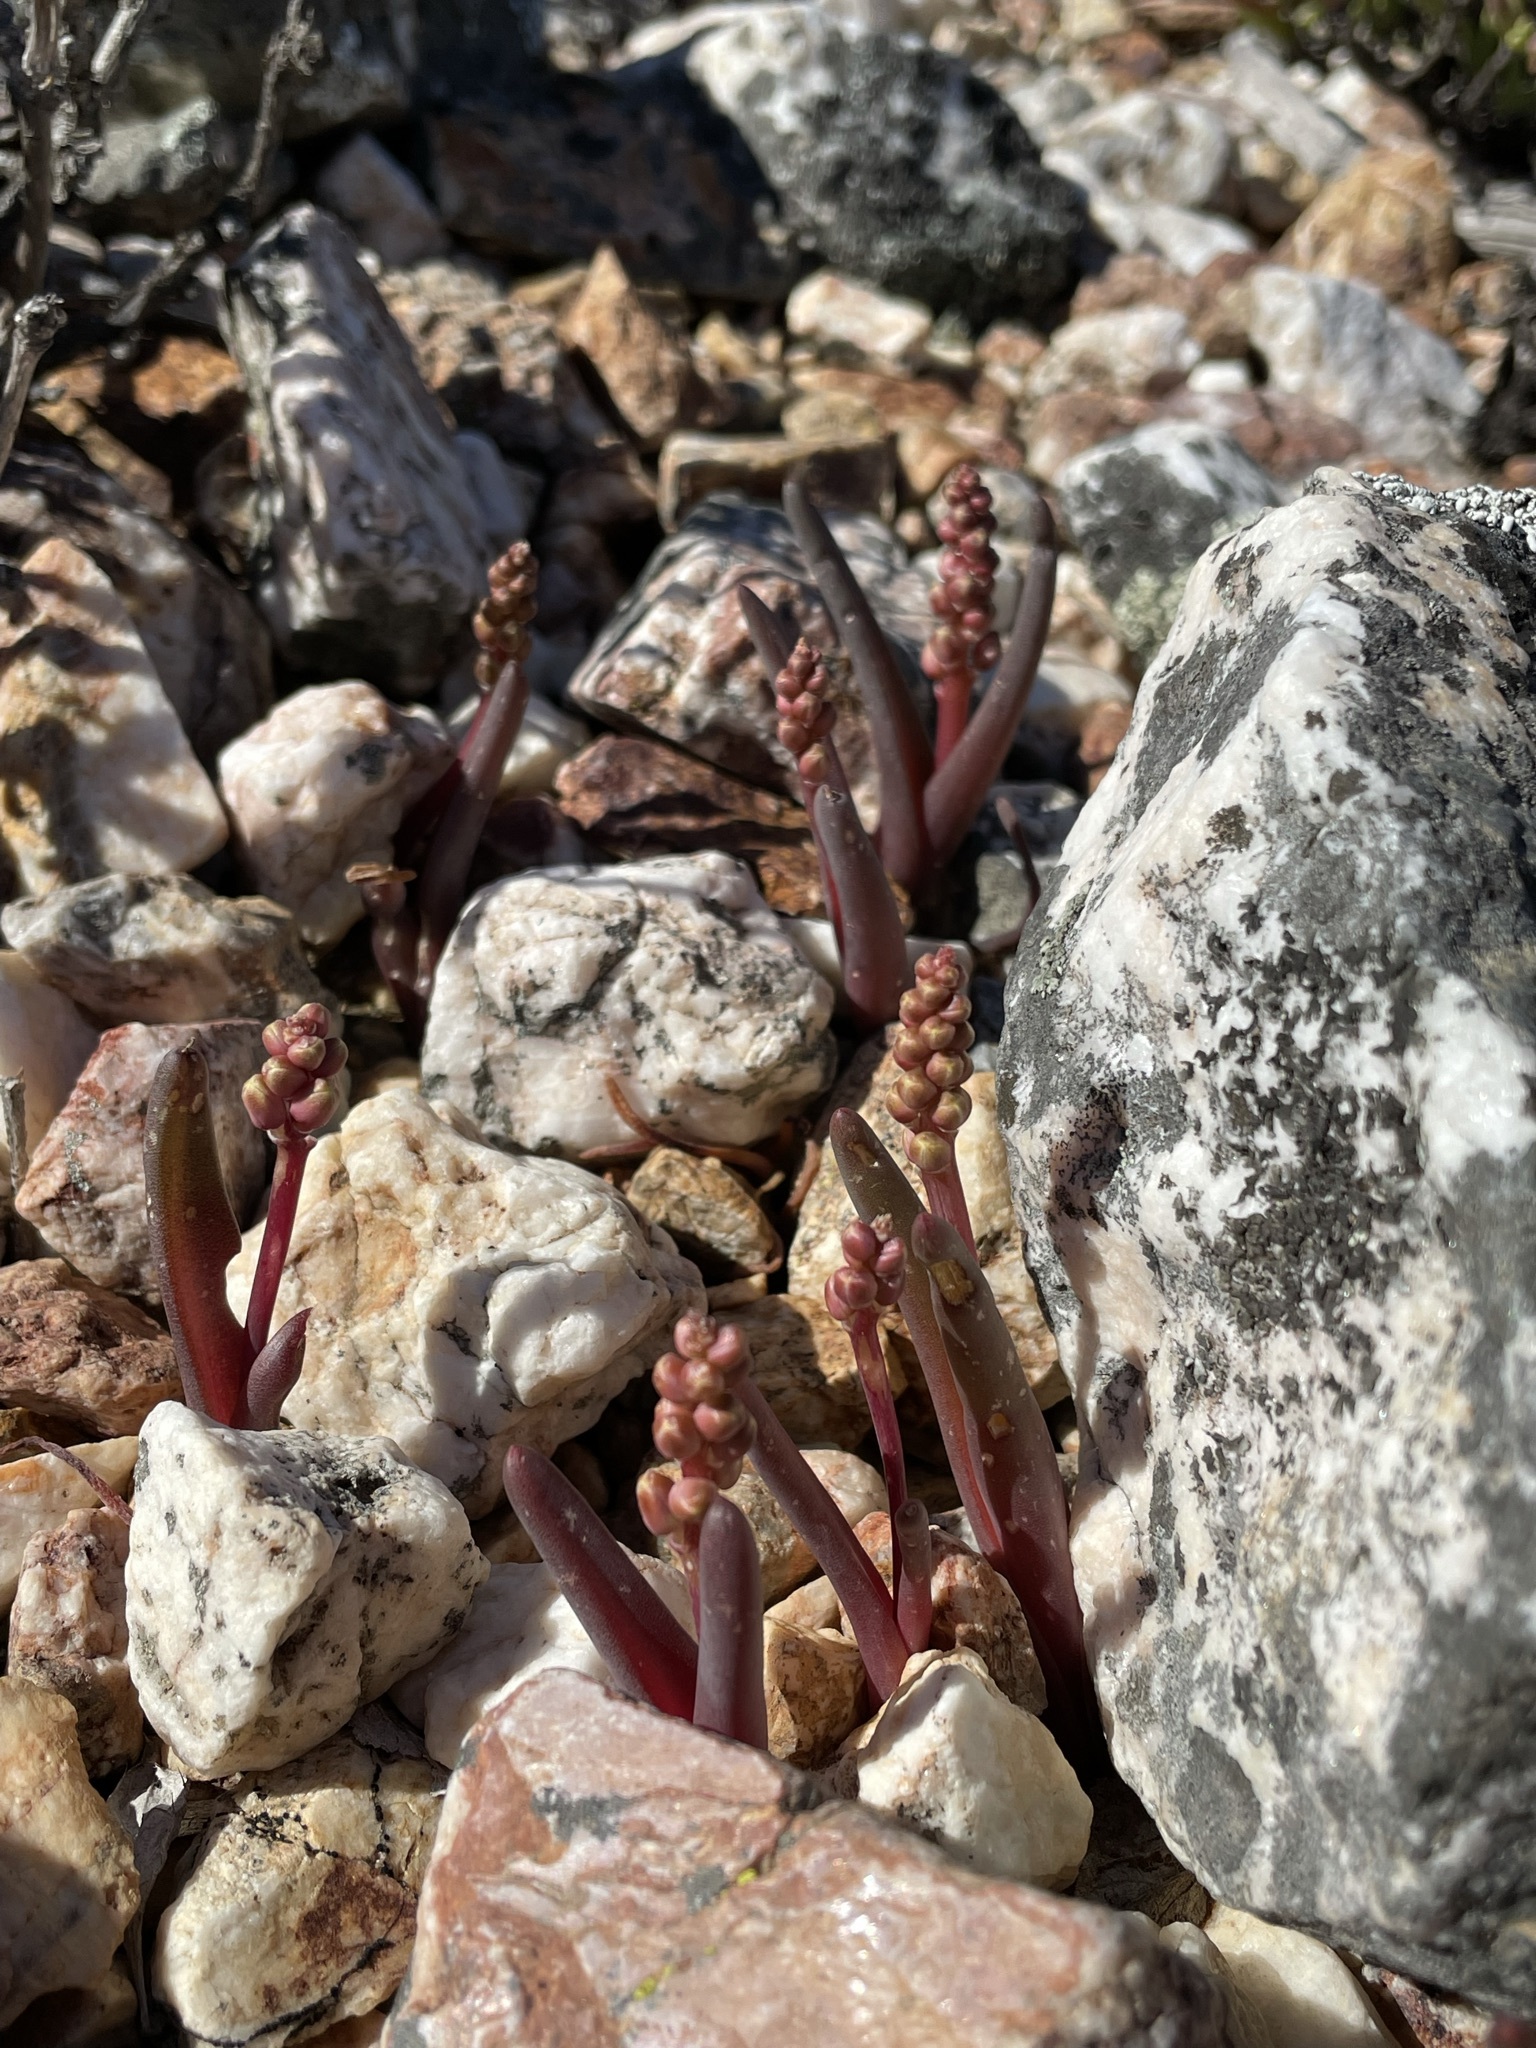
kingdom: Plantae
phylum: Tracheophyta
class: Liliopsida
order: Asparagales
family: Asparagaceae
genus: Lachenalia
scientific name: Lachenalia patula
